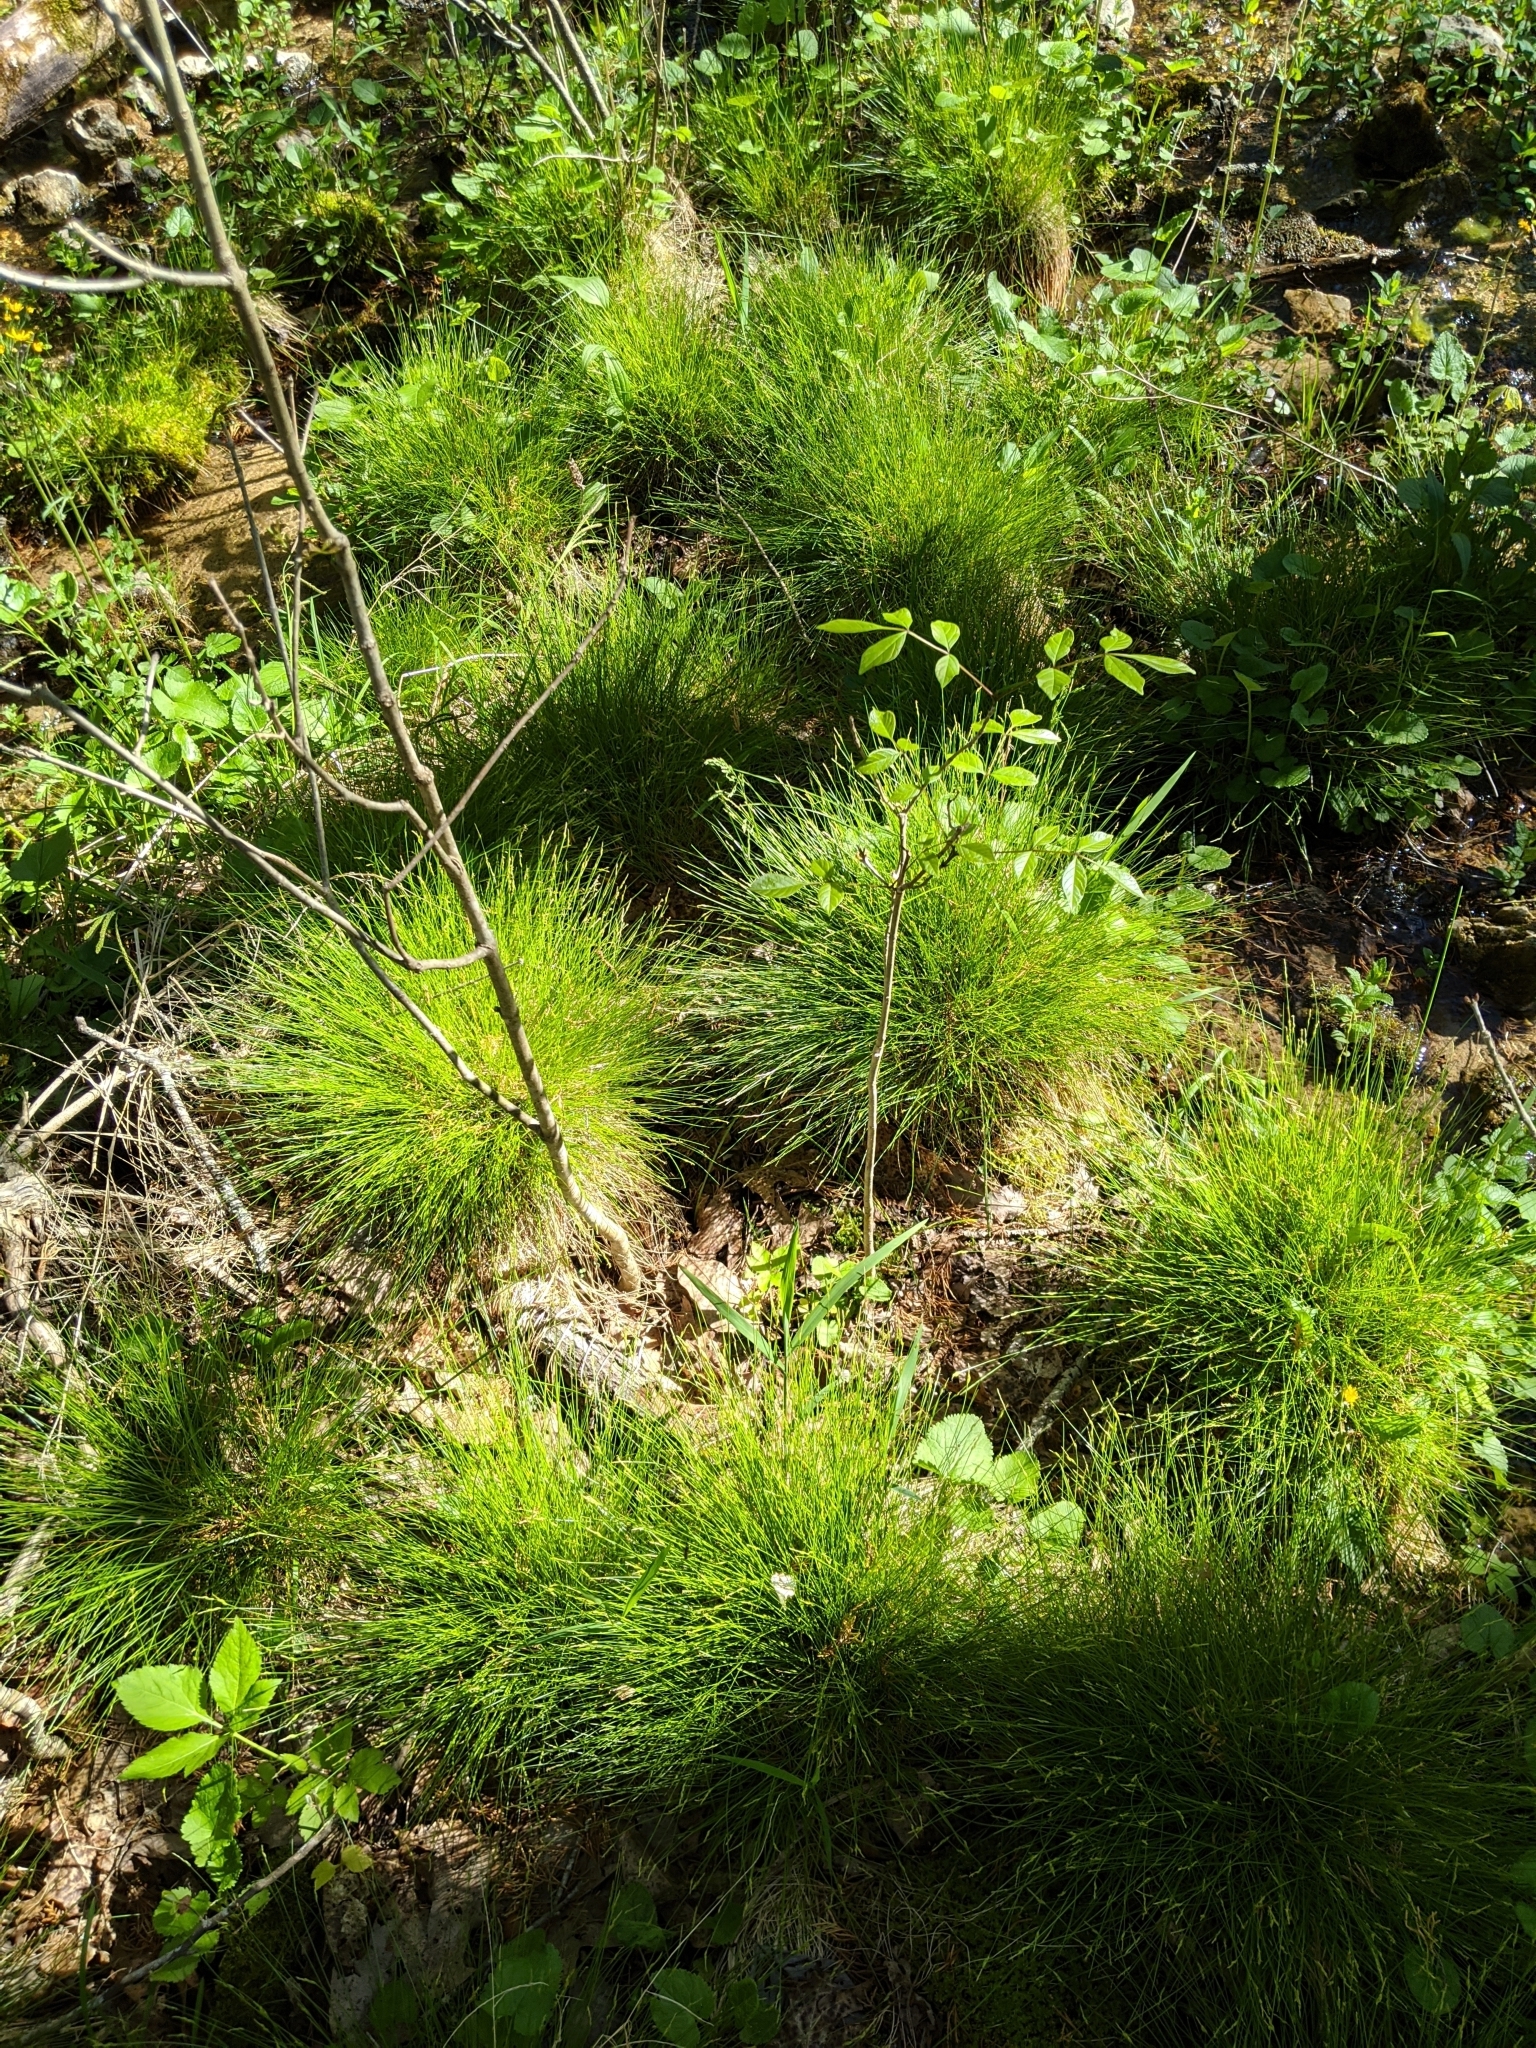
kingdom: Plantae
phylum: Tracheophyta
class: Liliopsida
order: Poales
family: Cyperaceae
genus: Carex
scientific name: Carex leptalea
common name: Bristly-stalked sedge
